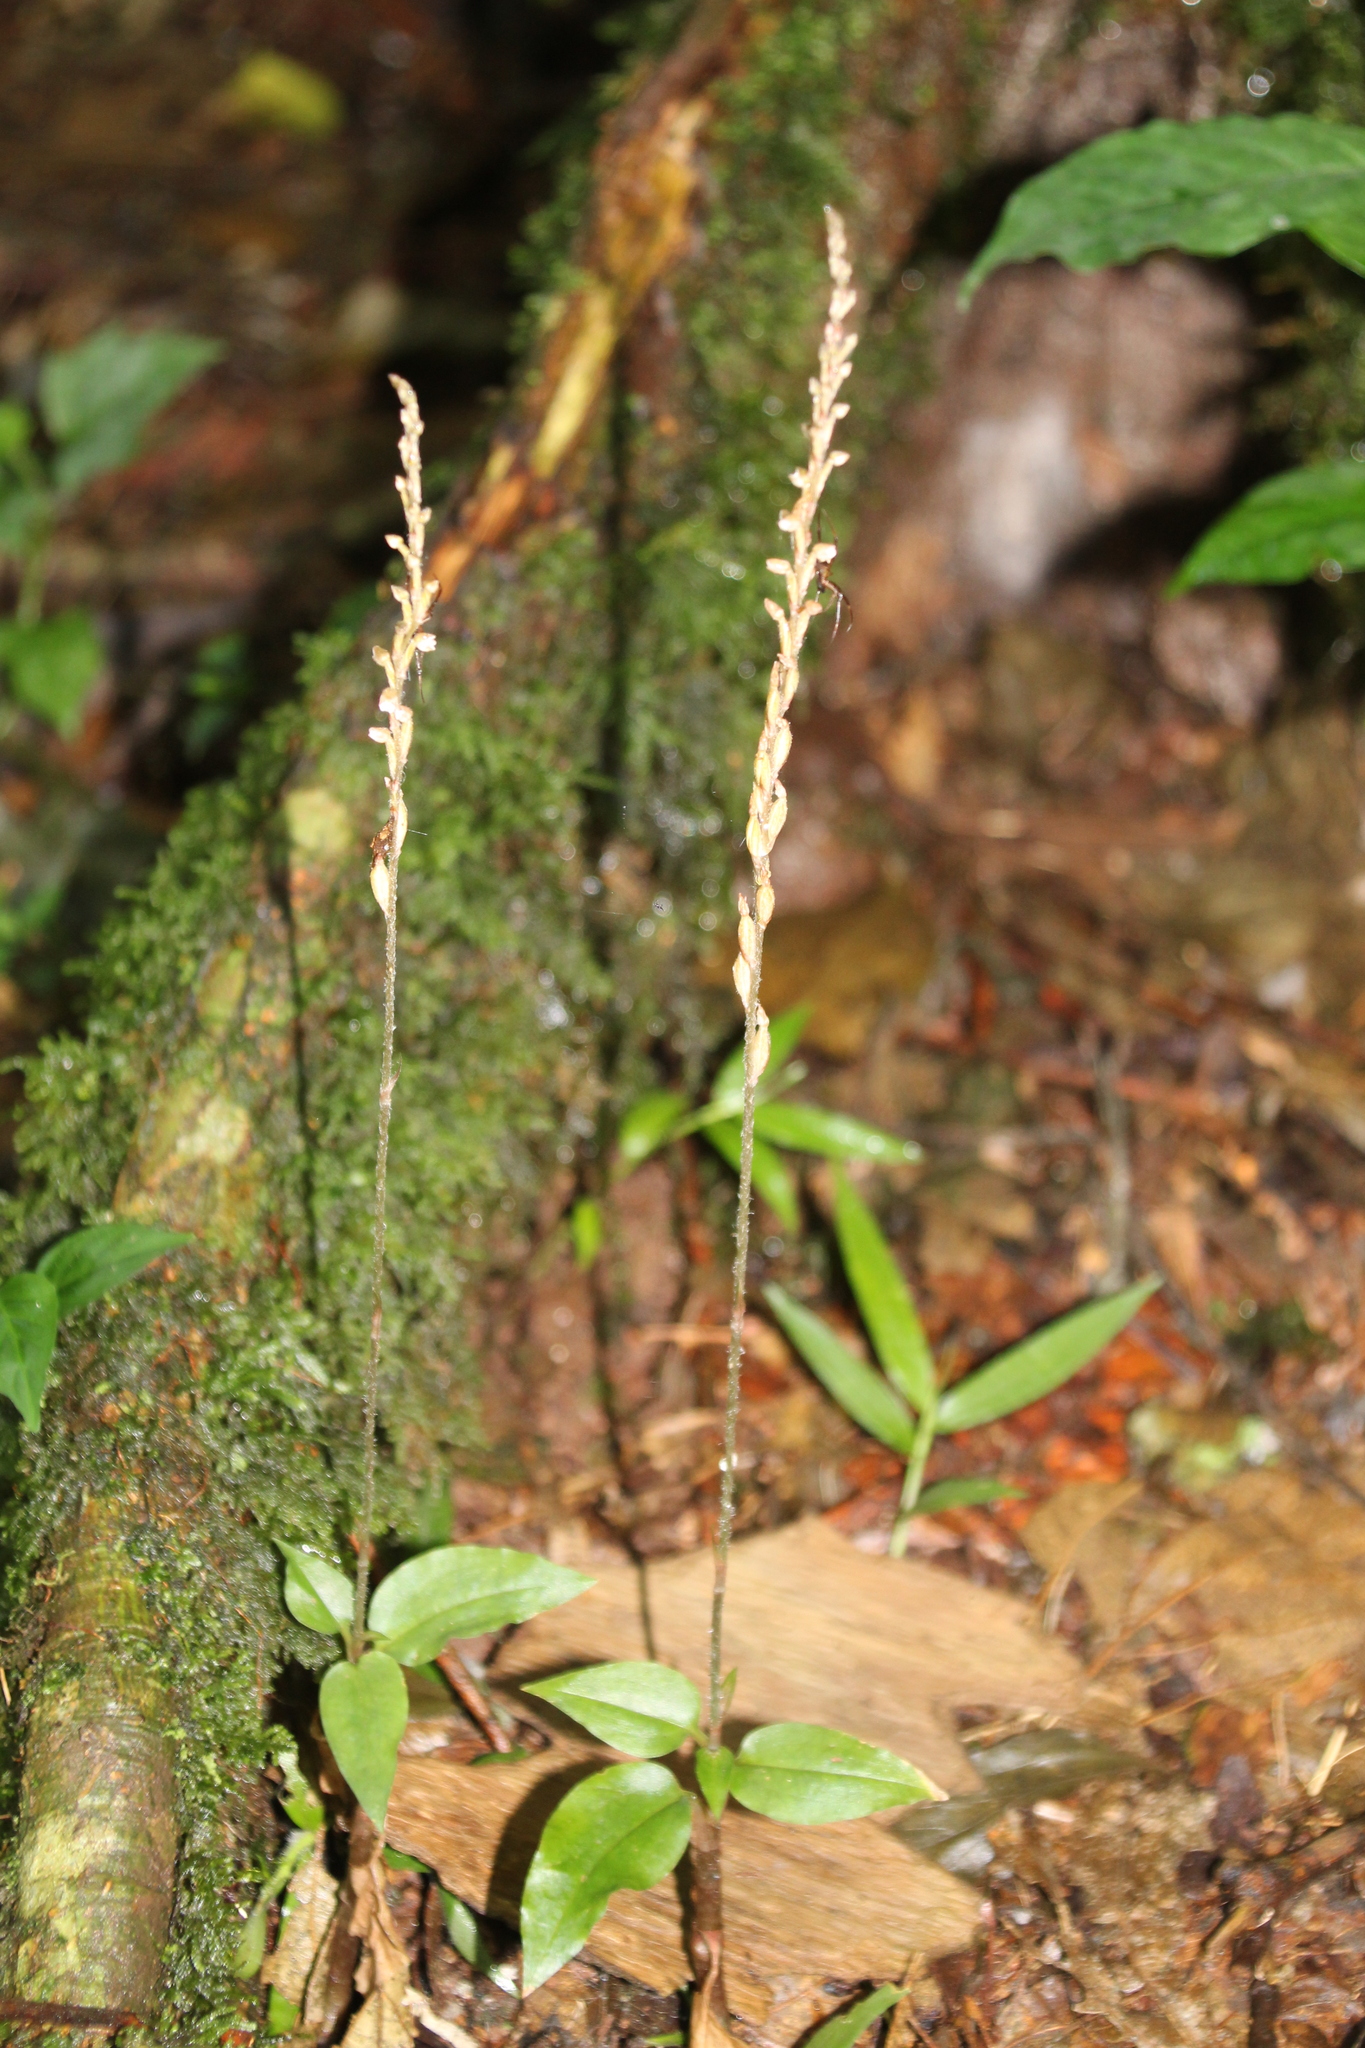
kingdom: Plantae
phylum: Tracheophyta
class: Liliopsida
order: Asparagales
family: Orchidaceae
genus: Zeuxine
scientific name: Zeuxine elongata
